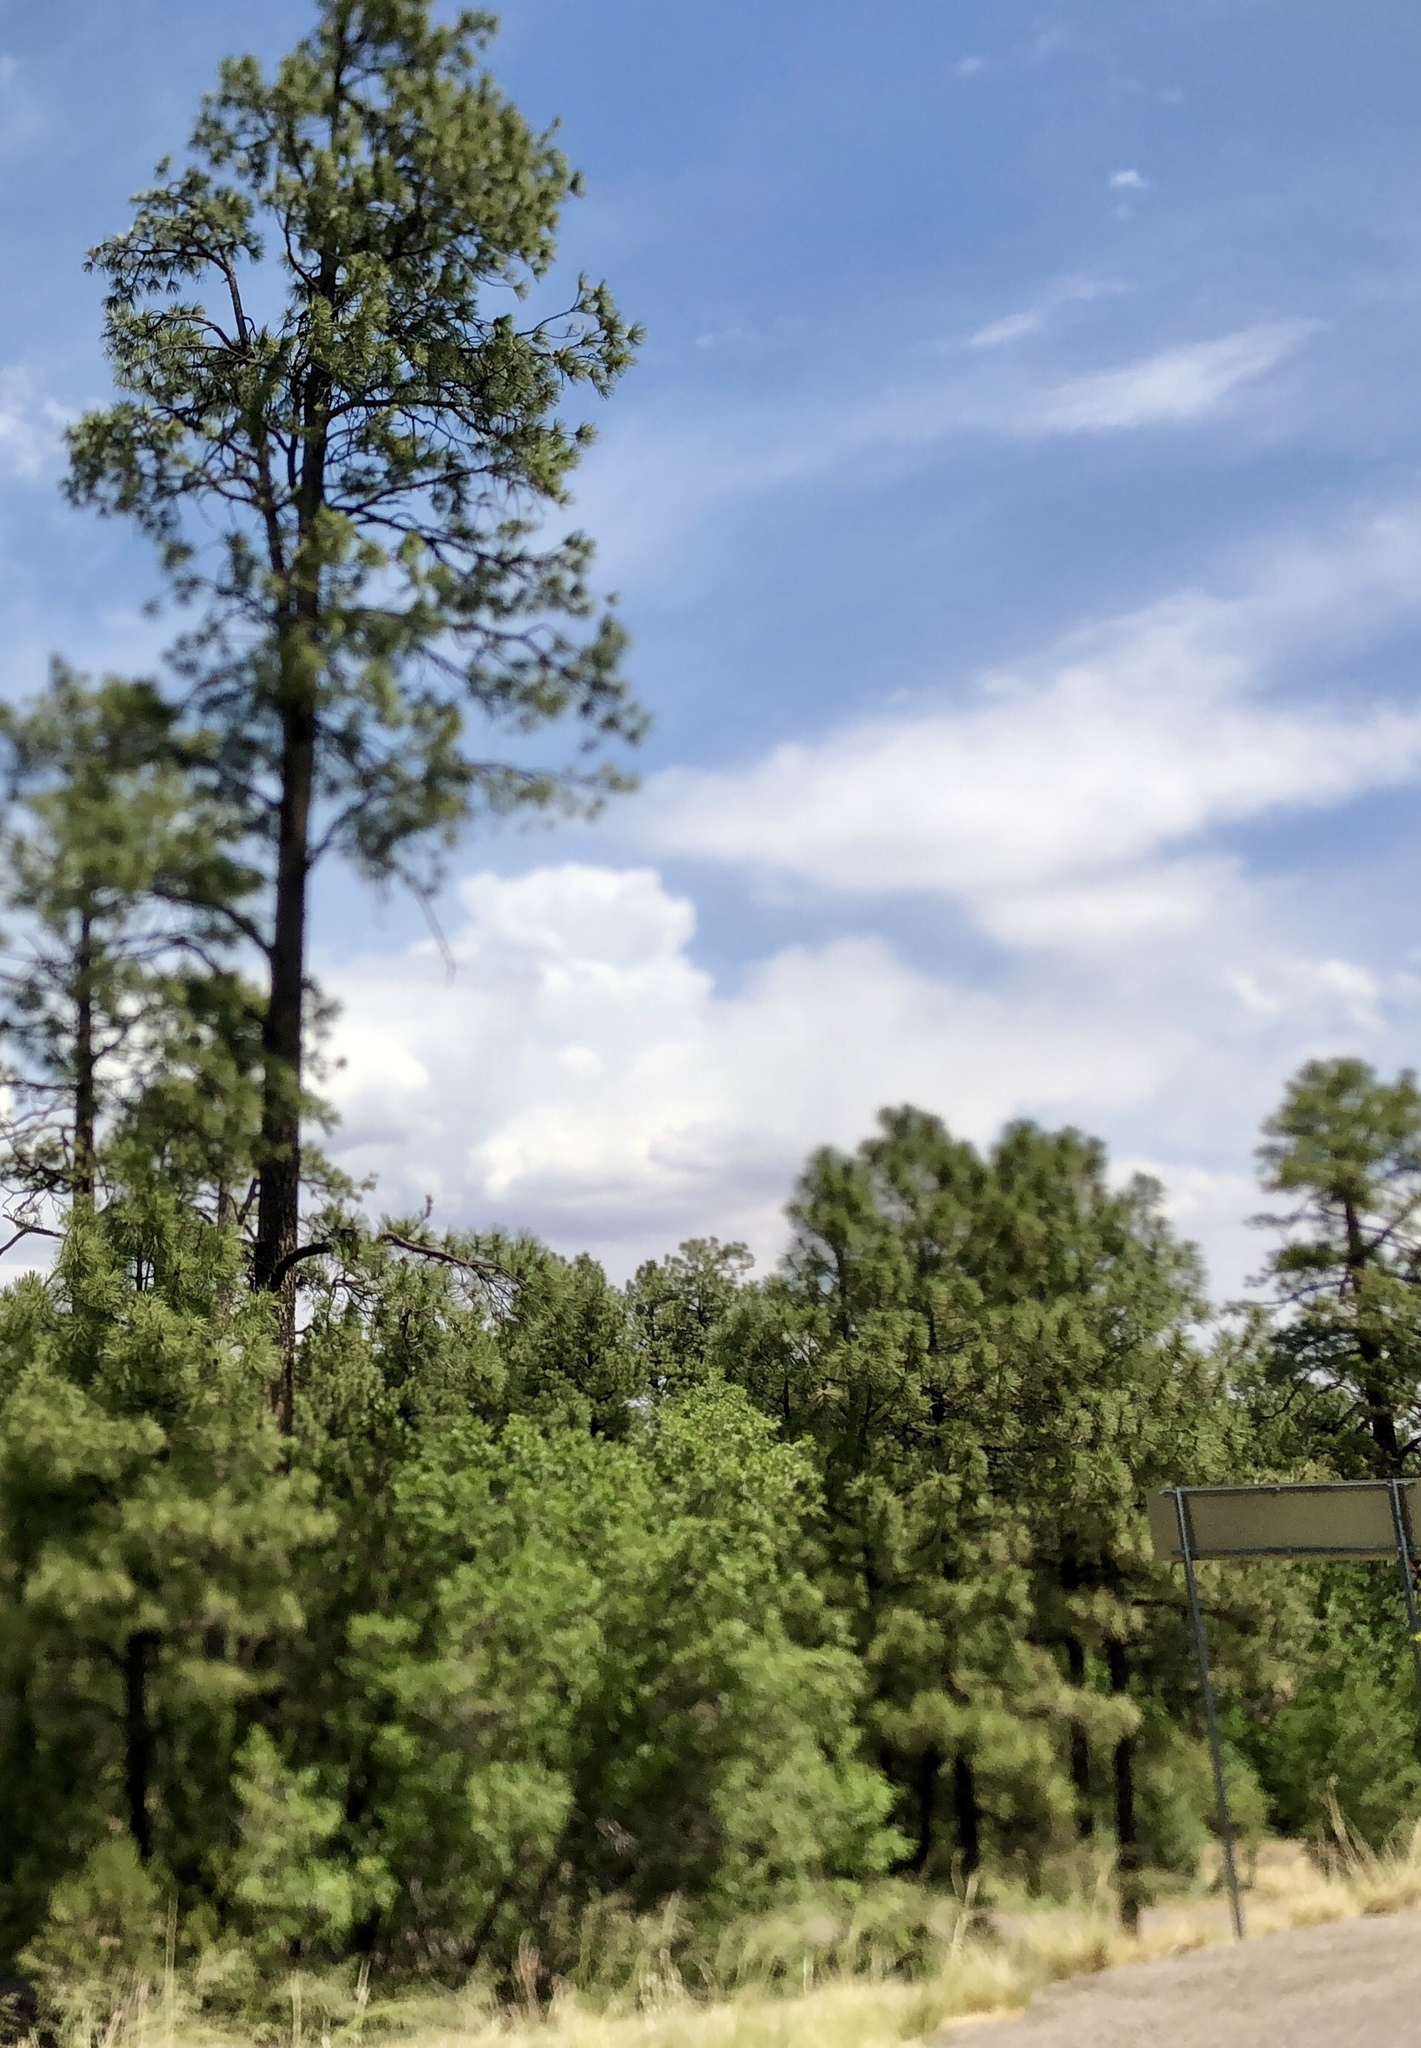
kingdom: Plantae
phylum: Tracheophyta
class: Pinopsida
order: Pinales
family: Pinaceae
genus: Pinus
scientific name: Pinus ponderosa
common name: Western yellow-pine
